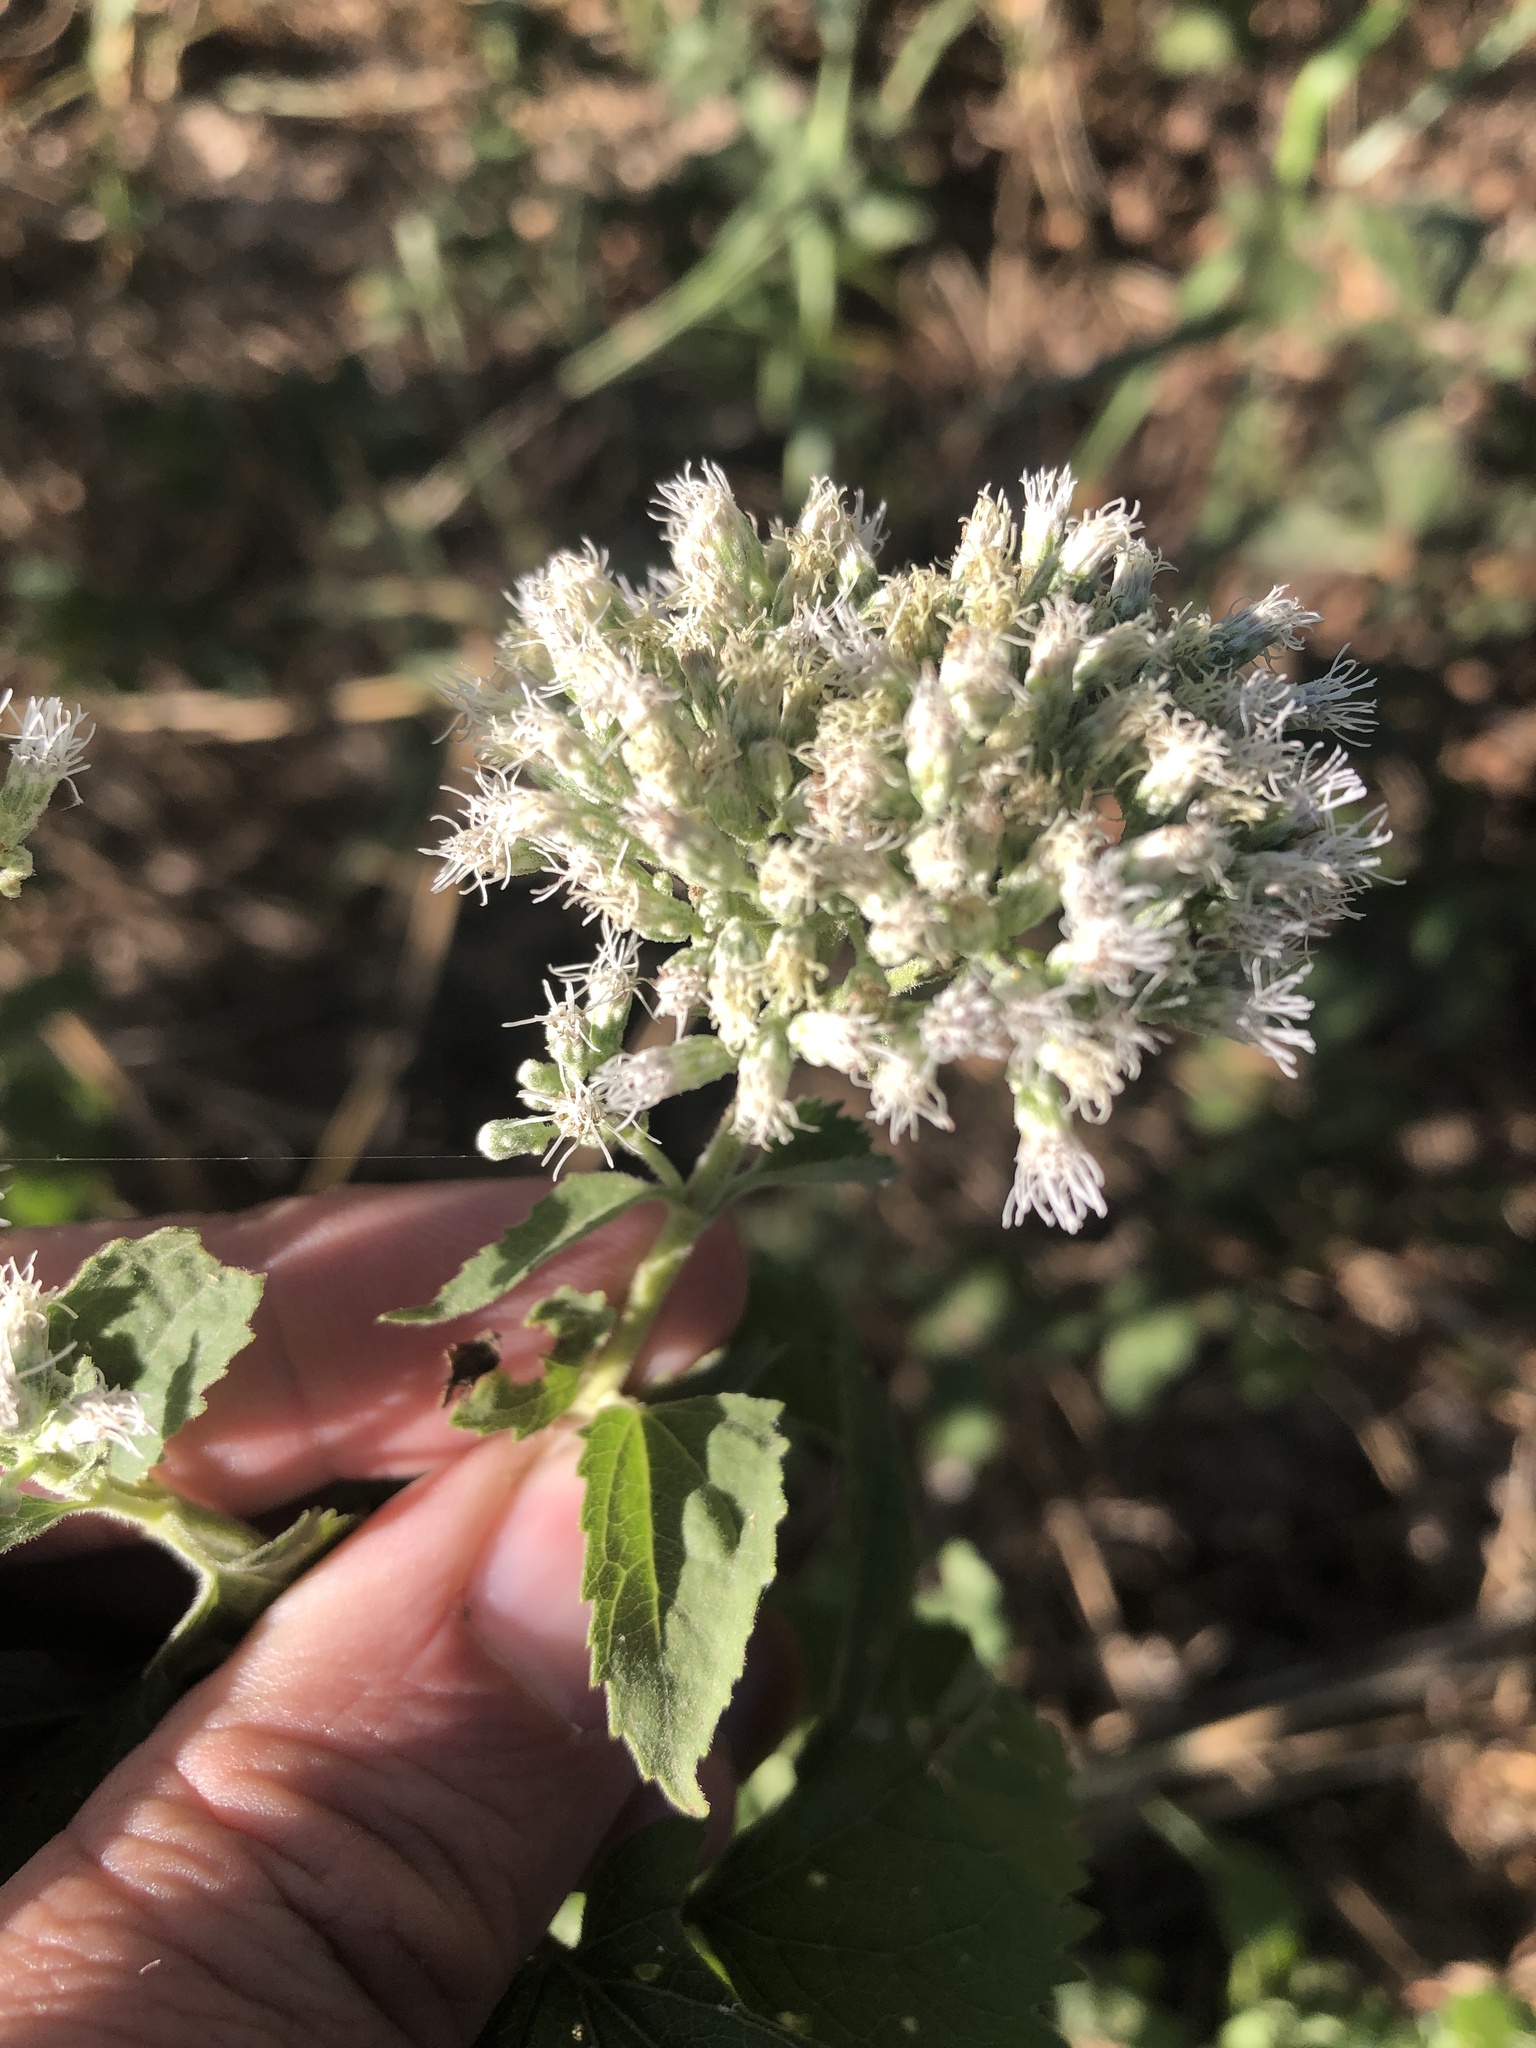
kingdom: Plantae
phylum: Tracheophyta
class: Magnoliopsida
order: Asterales
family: Asteraceae
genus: Eupatorium
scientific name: Eupatorium serotinum
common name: Late boneset
